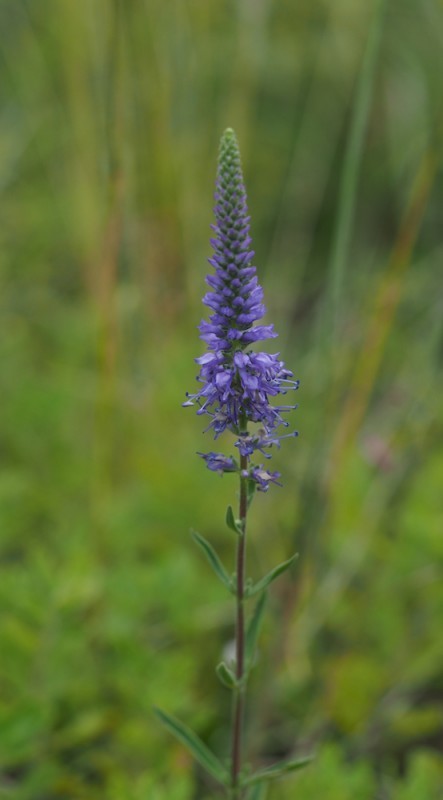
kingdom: Plantae
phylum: Tracheophyta
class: Magnoliopsida
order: Lamiales
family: Plantaginaceae
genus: Veronica
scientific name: Veronica spicata
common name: Spiked speedwell
